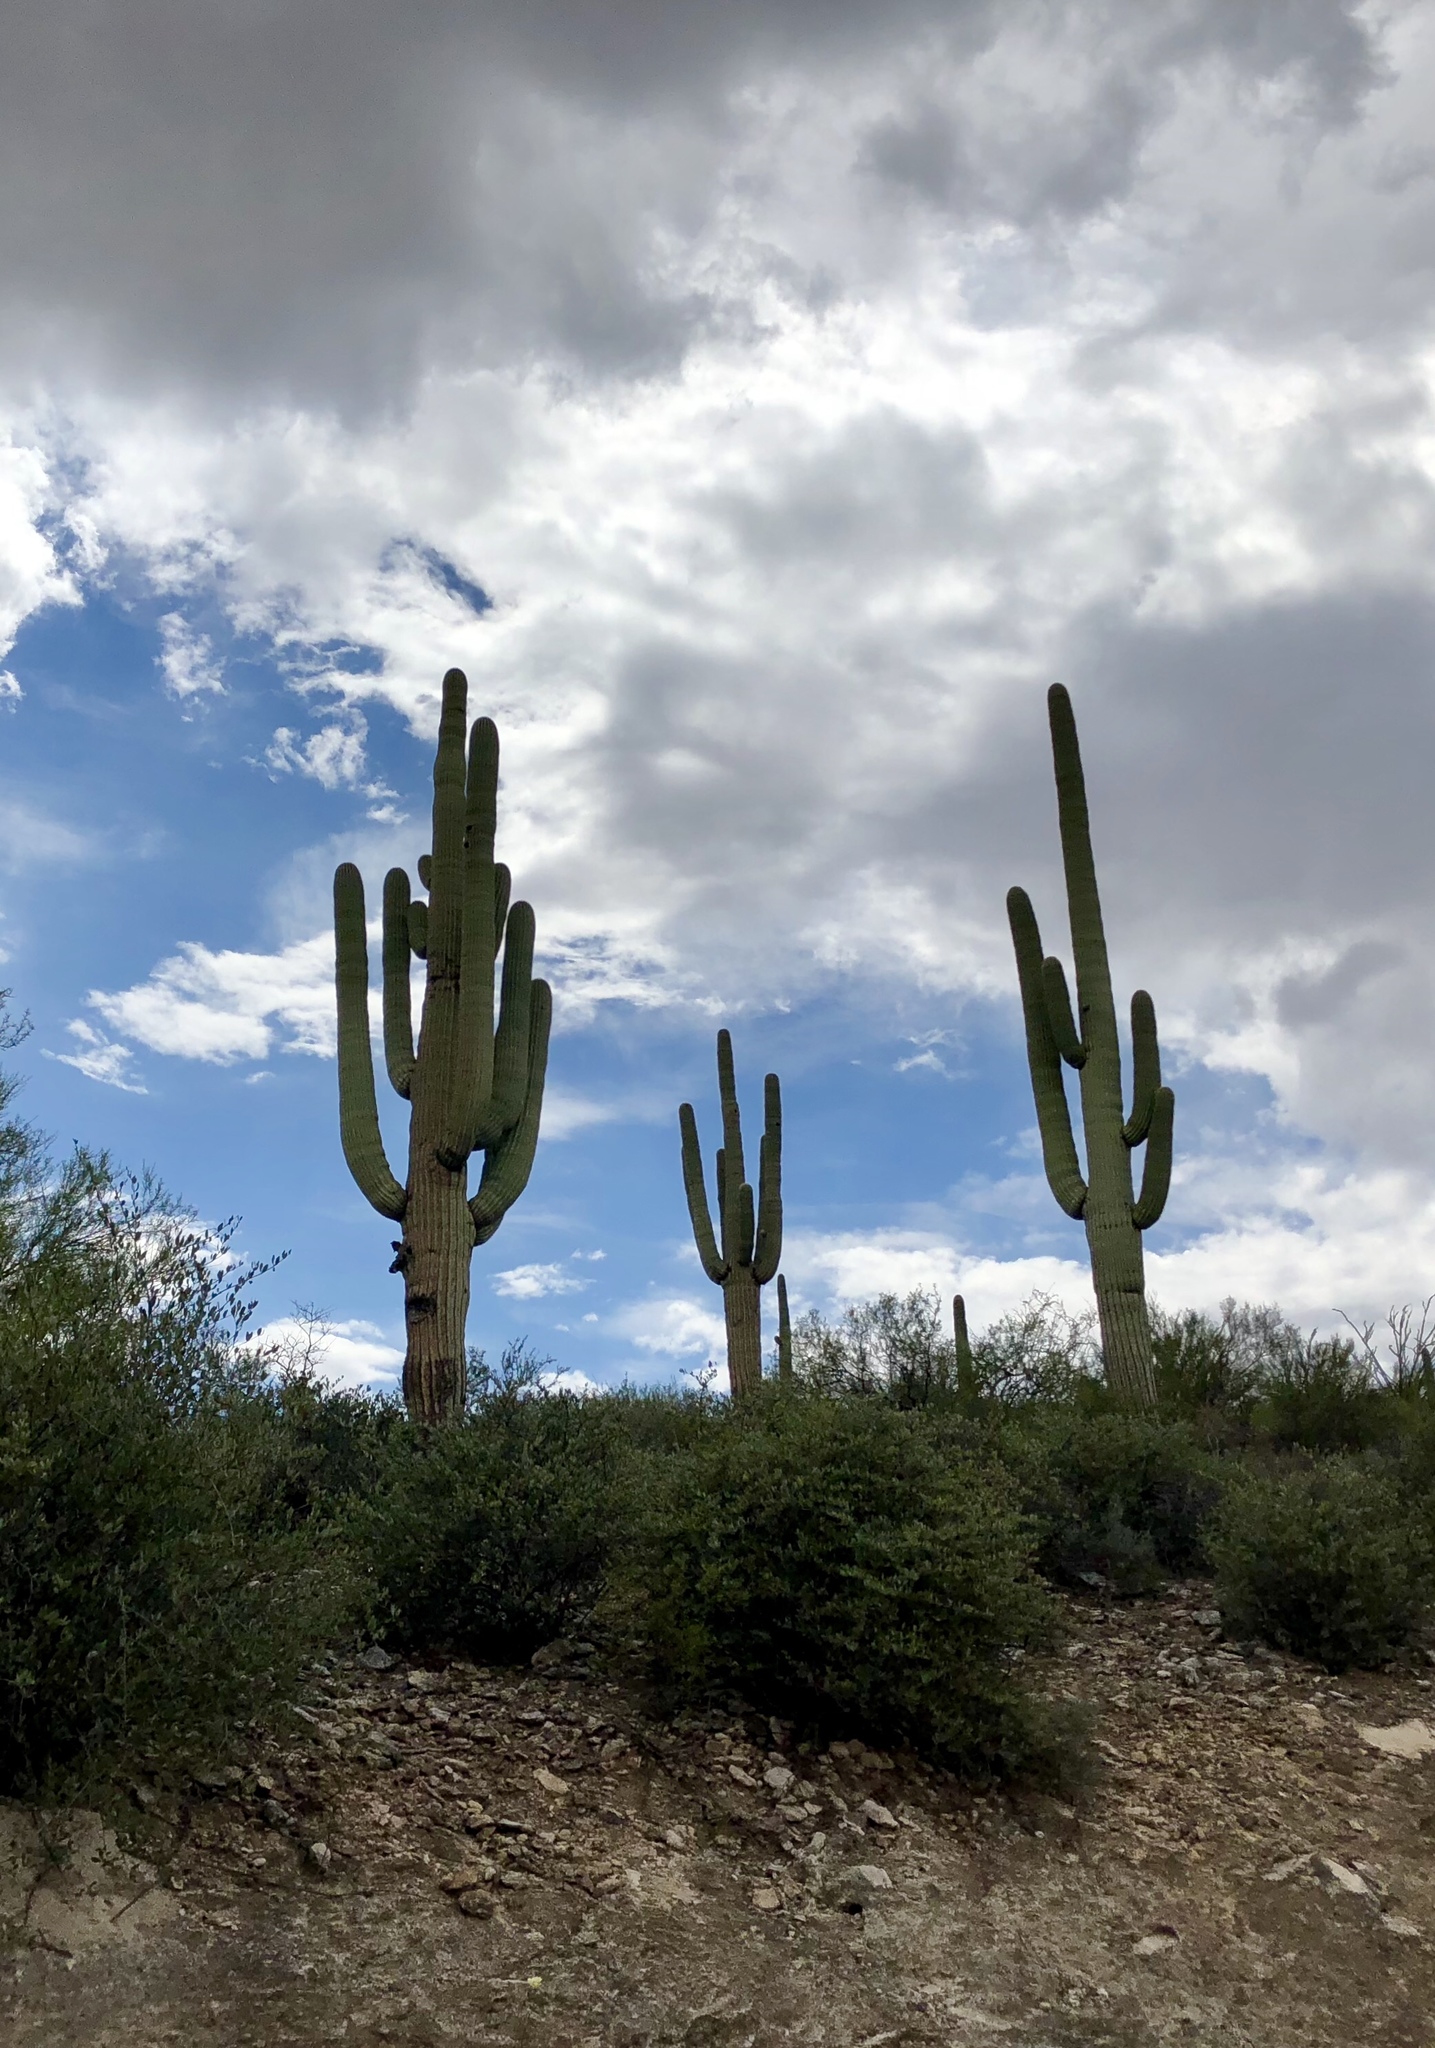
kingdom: Plantae
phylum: Tracheophyta
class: Magnoliopsida
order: Caryophyllales
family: Cactaceae
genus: Carnegiea
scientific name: Carnegiea gigantea
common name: Saguaro
